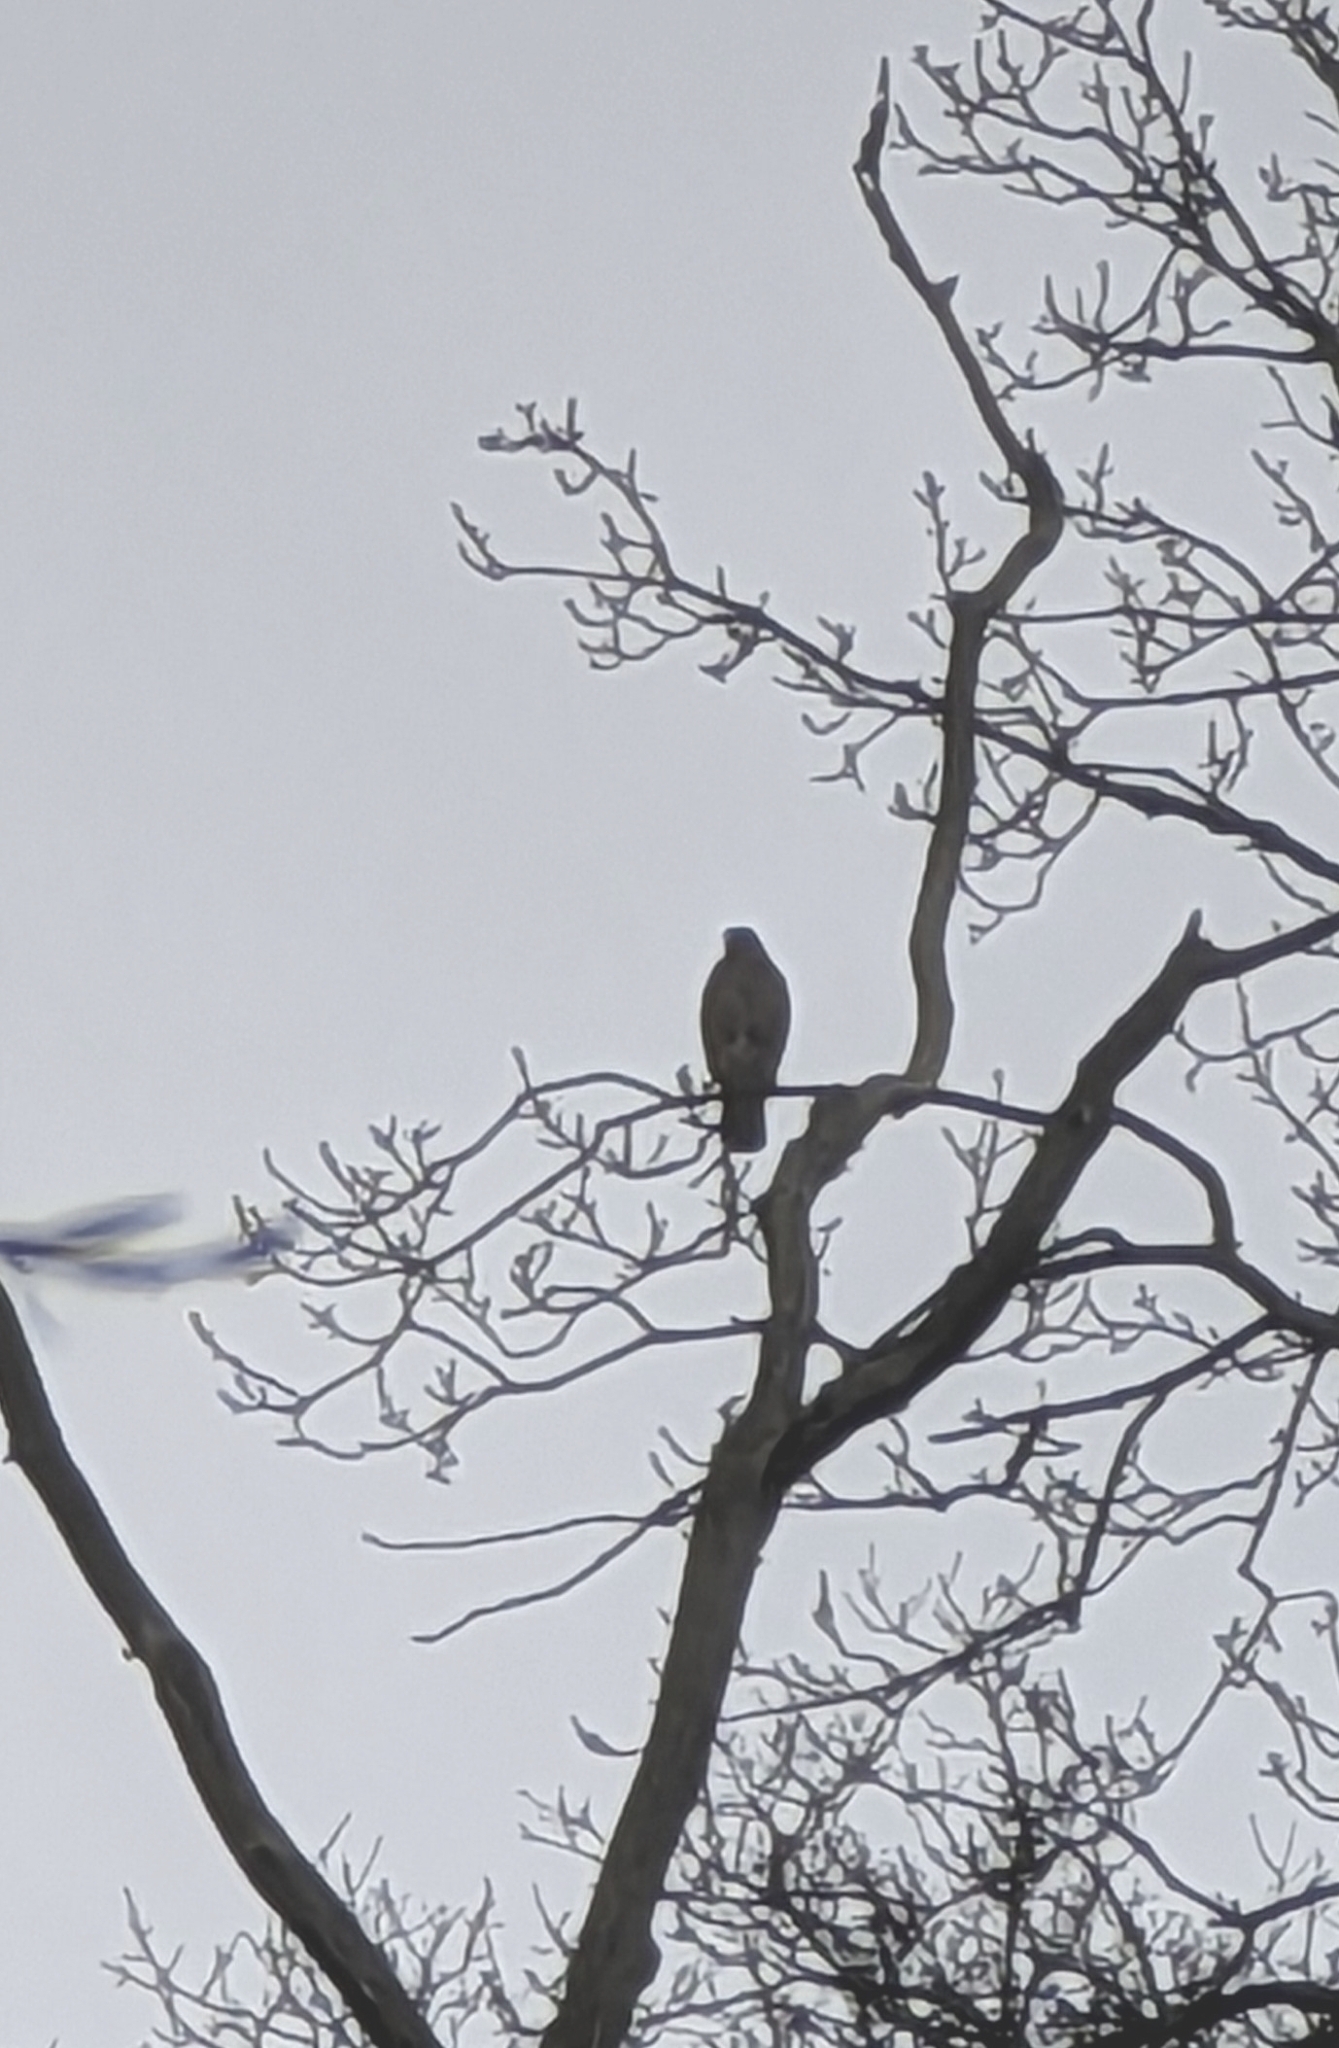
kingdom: Animalia
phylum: Chordata
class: Aves
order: Accipitriformes
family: Accipitridae
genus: Buteo
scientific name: Buteo buteo
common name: Common buzzard
